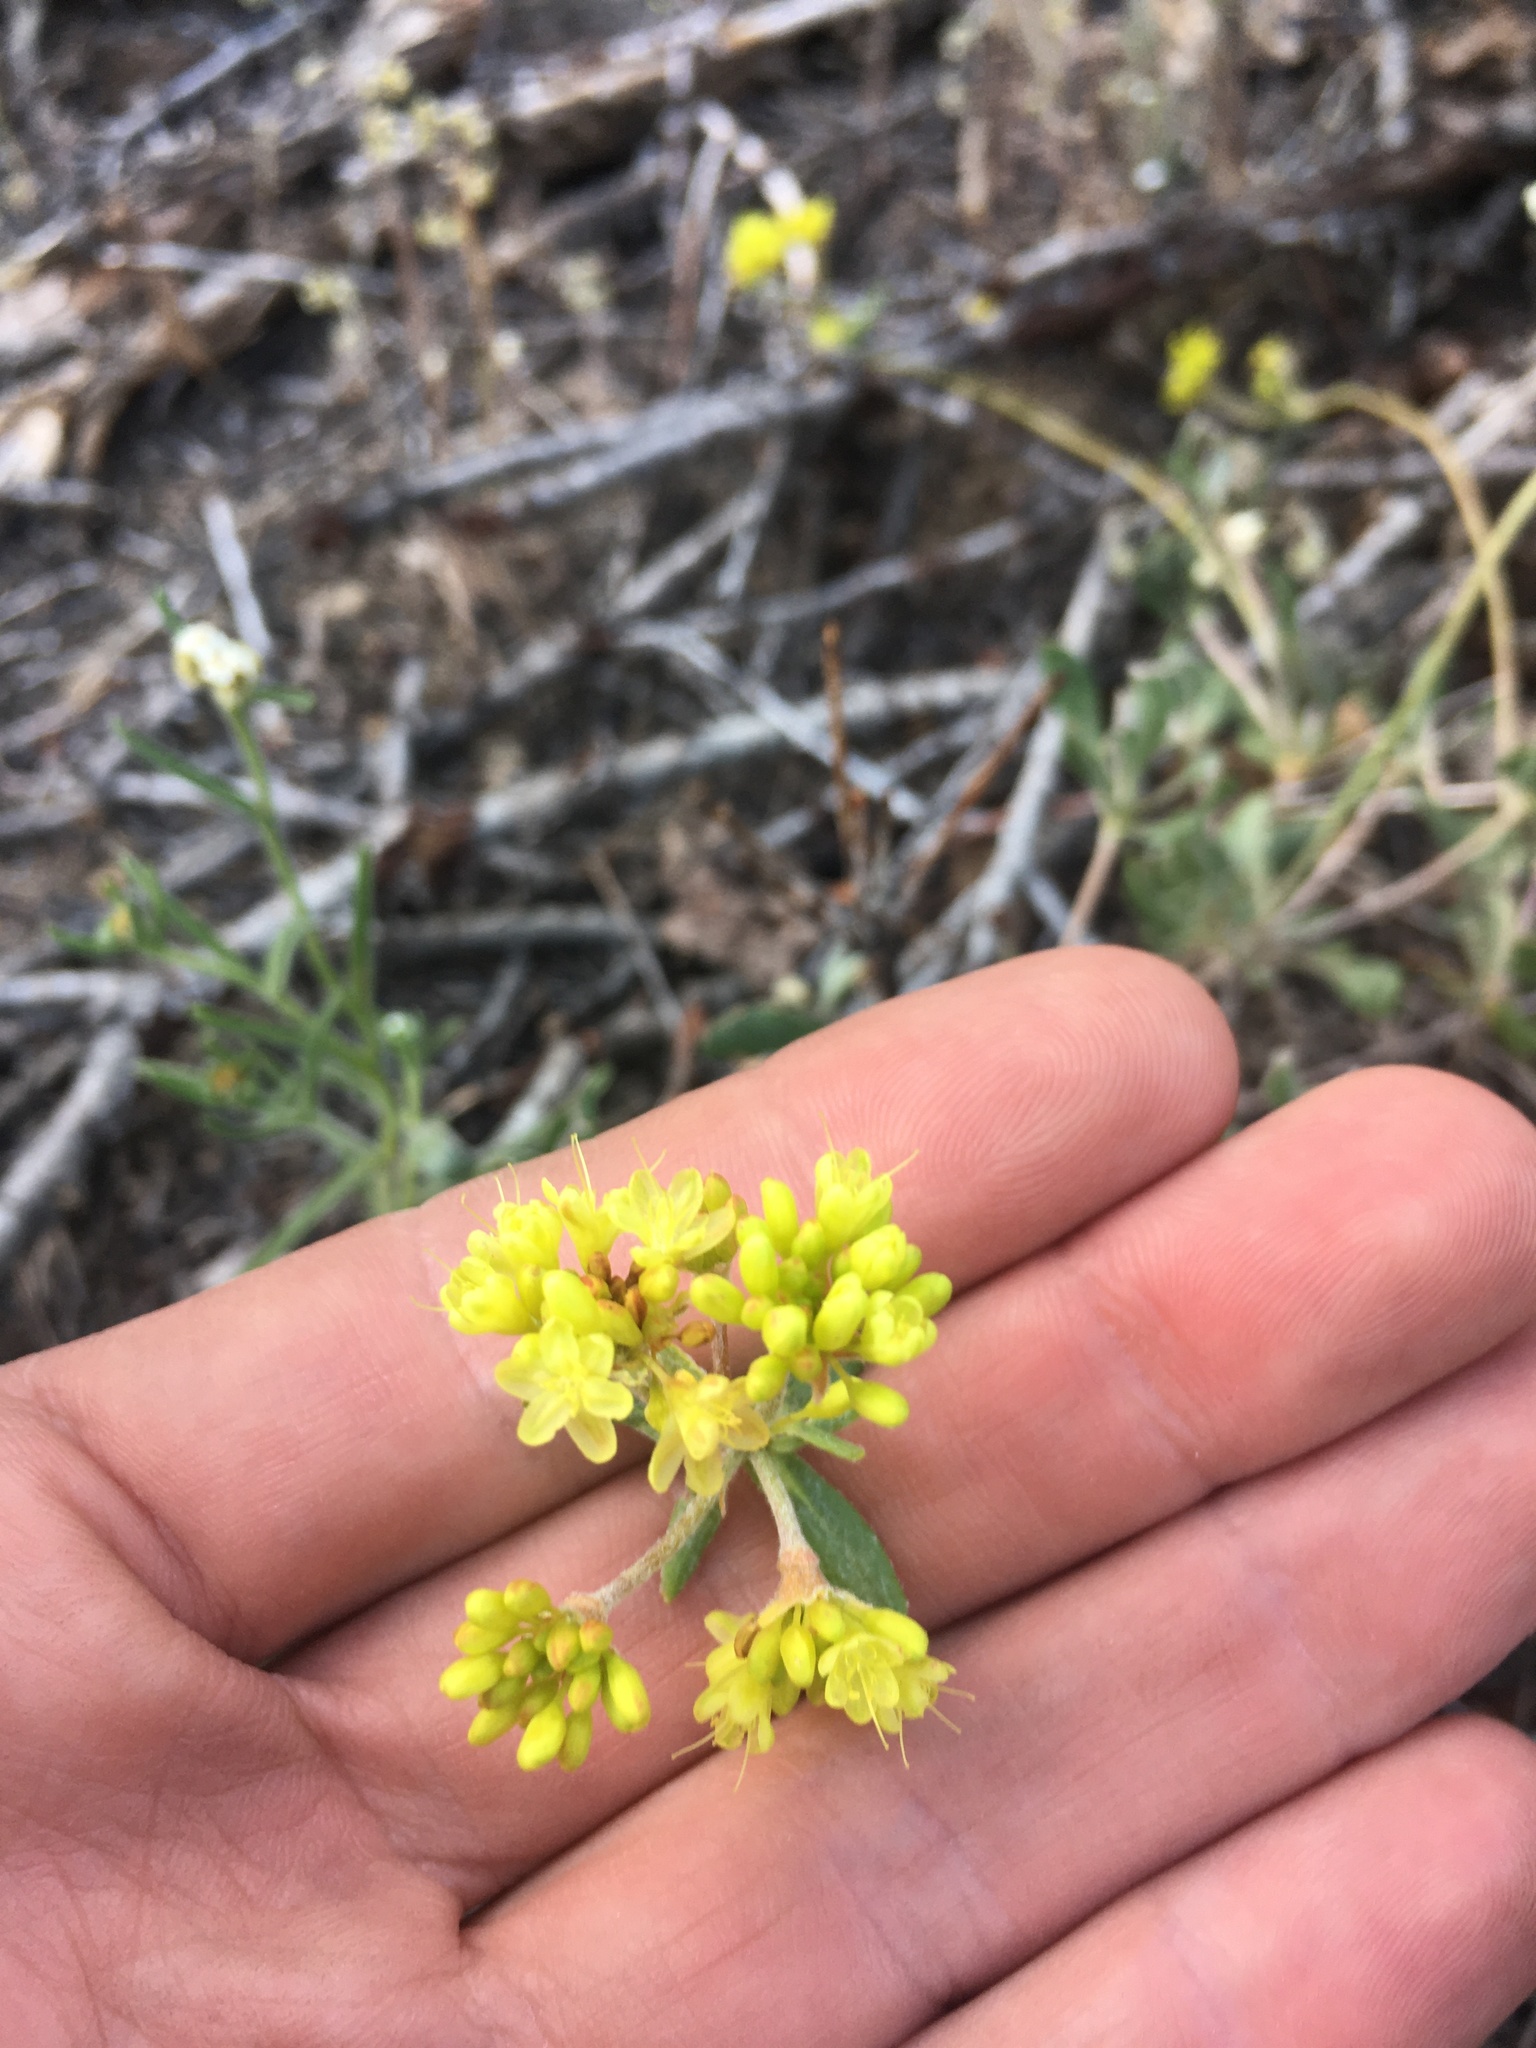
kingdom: Plantae
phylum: Tracheophyta
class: Magnoliopsida
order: Caryophyllales
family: Polygonaceae
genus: Eriogonum
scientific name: Eriogonum umbellatum
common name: Sulfur-buckwheat
